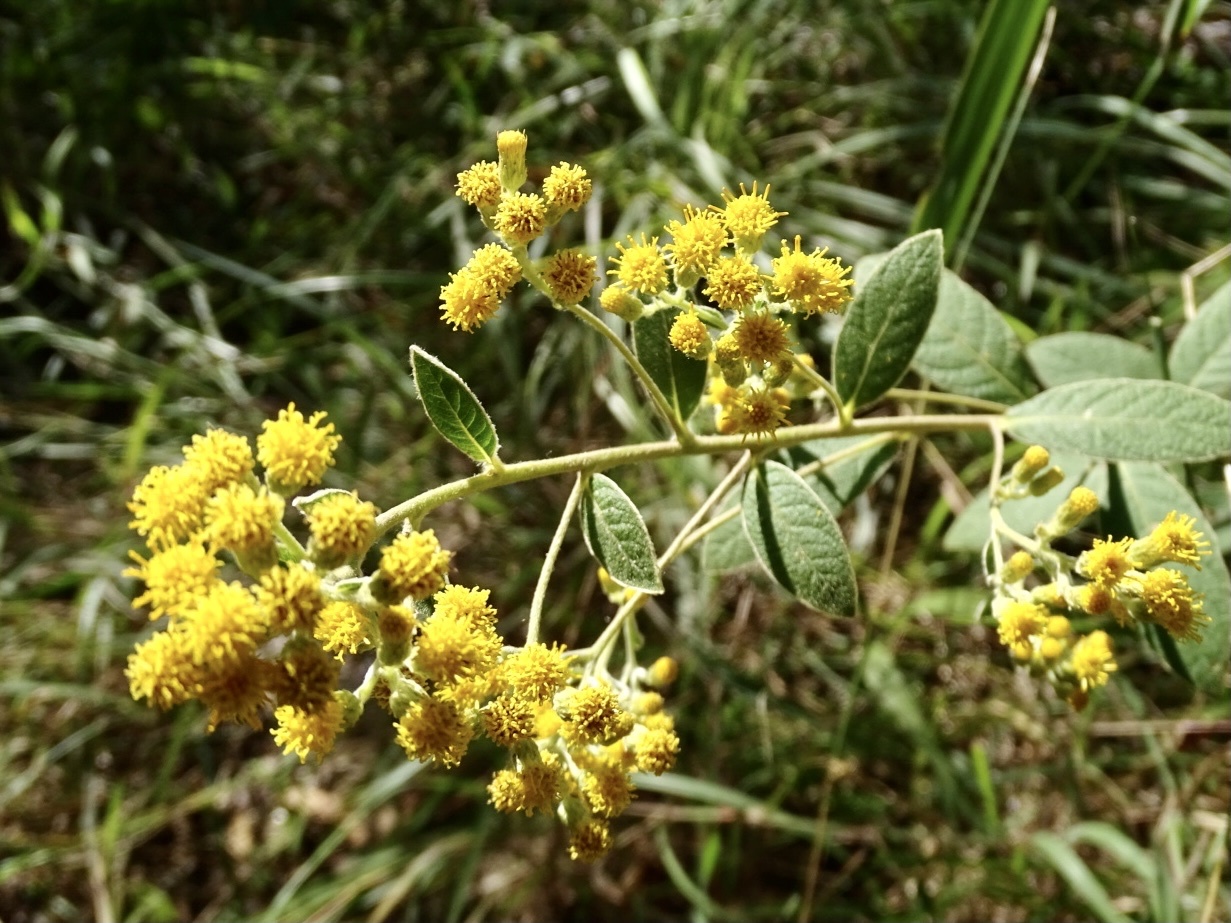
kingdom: Plantae
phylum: Tracheophyta
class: Magnoliopsida
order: Asterales
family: Asteraceae
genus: Duhaldea
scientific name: Duhaldea cappa
